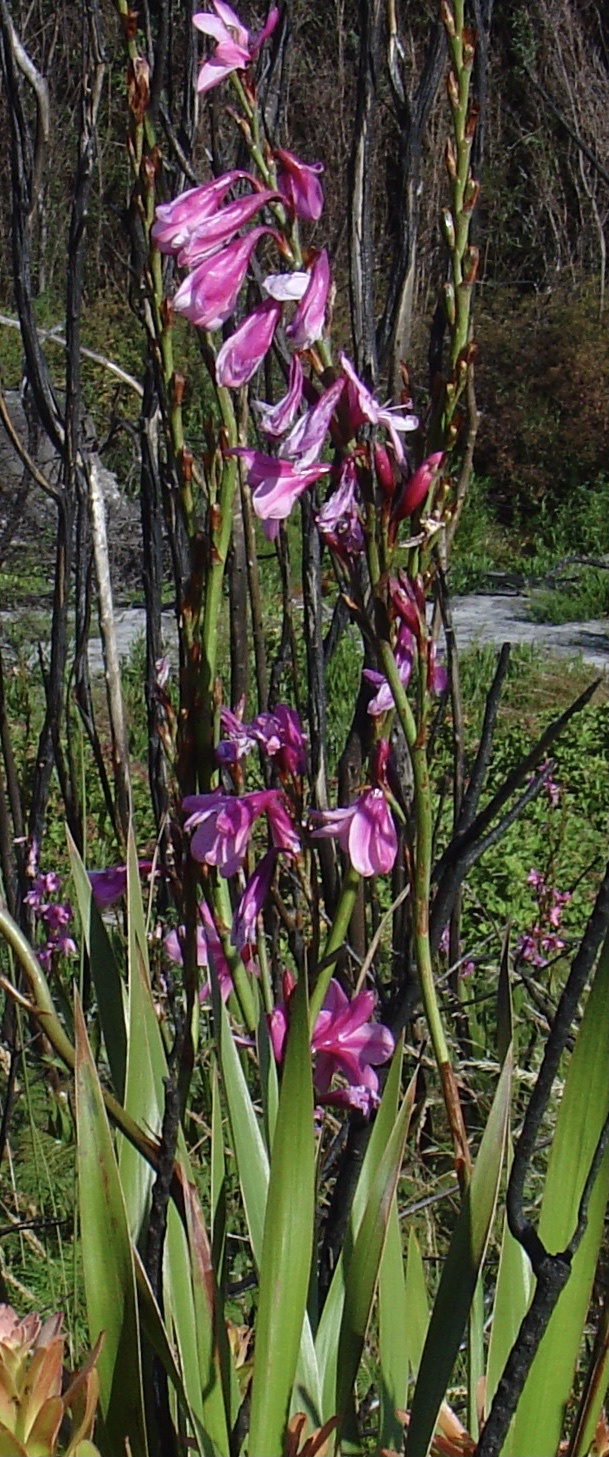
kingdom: Plantae
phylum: Tracheophyta
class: Liliopsida
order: Asparagales
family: Iridaceae
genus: Watsonia
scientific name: Watsonia borbonica
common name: Bugle-lily
